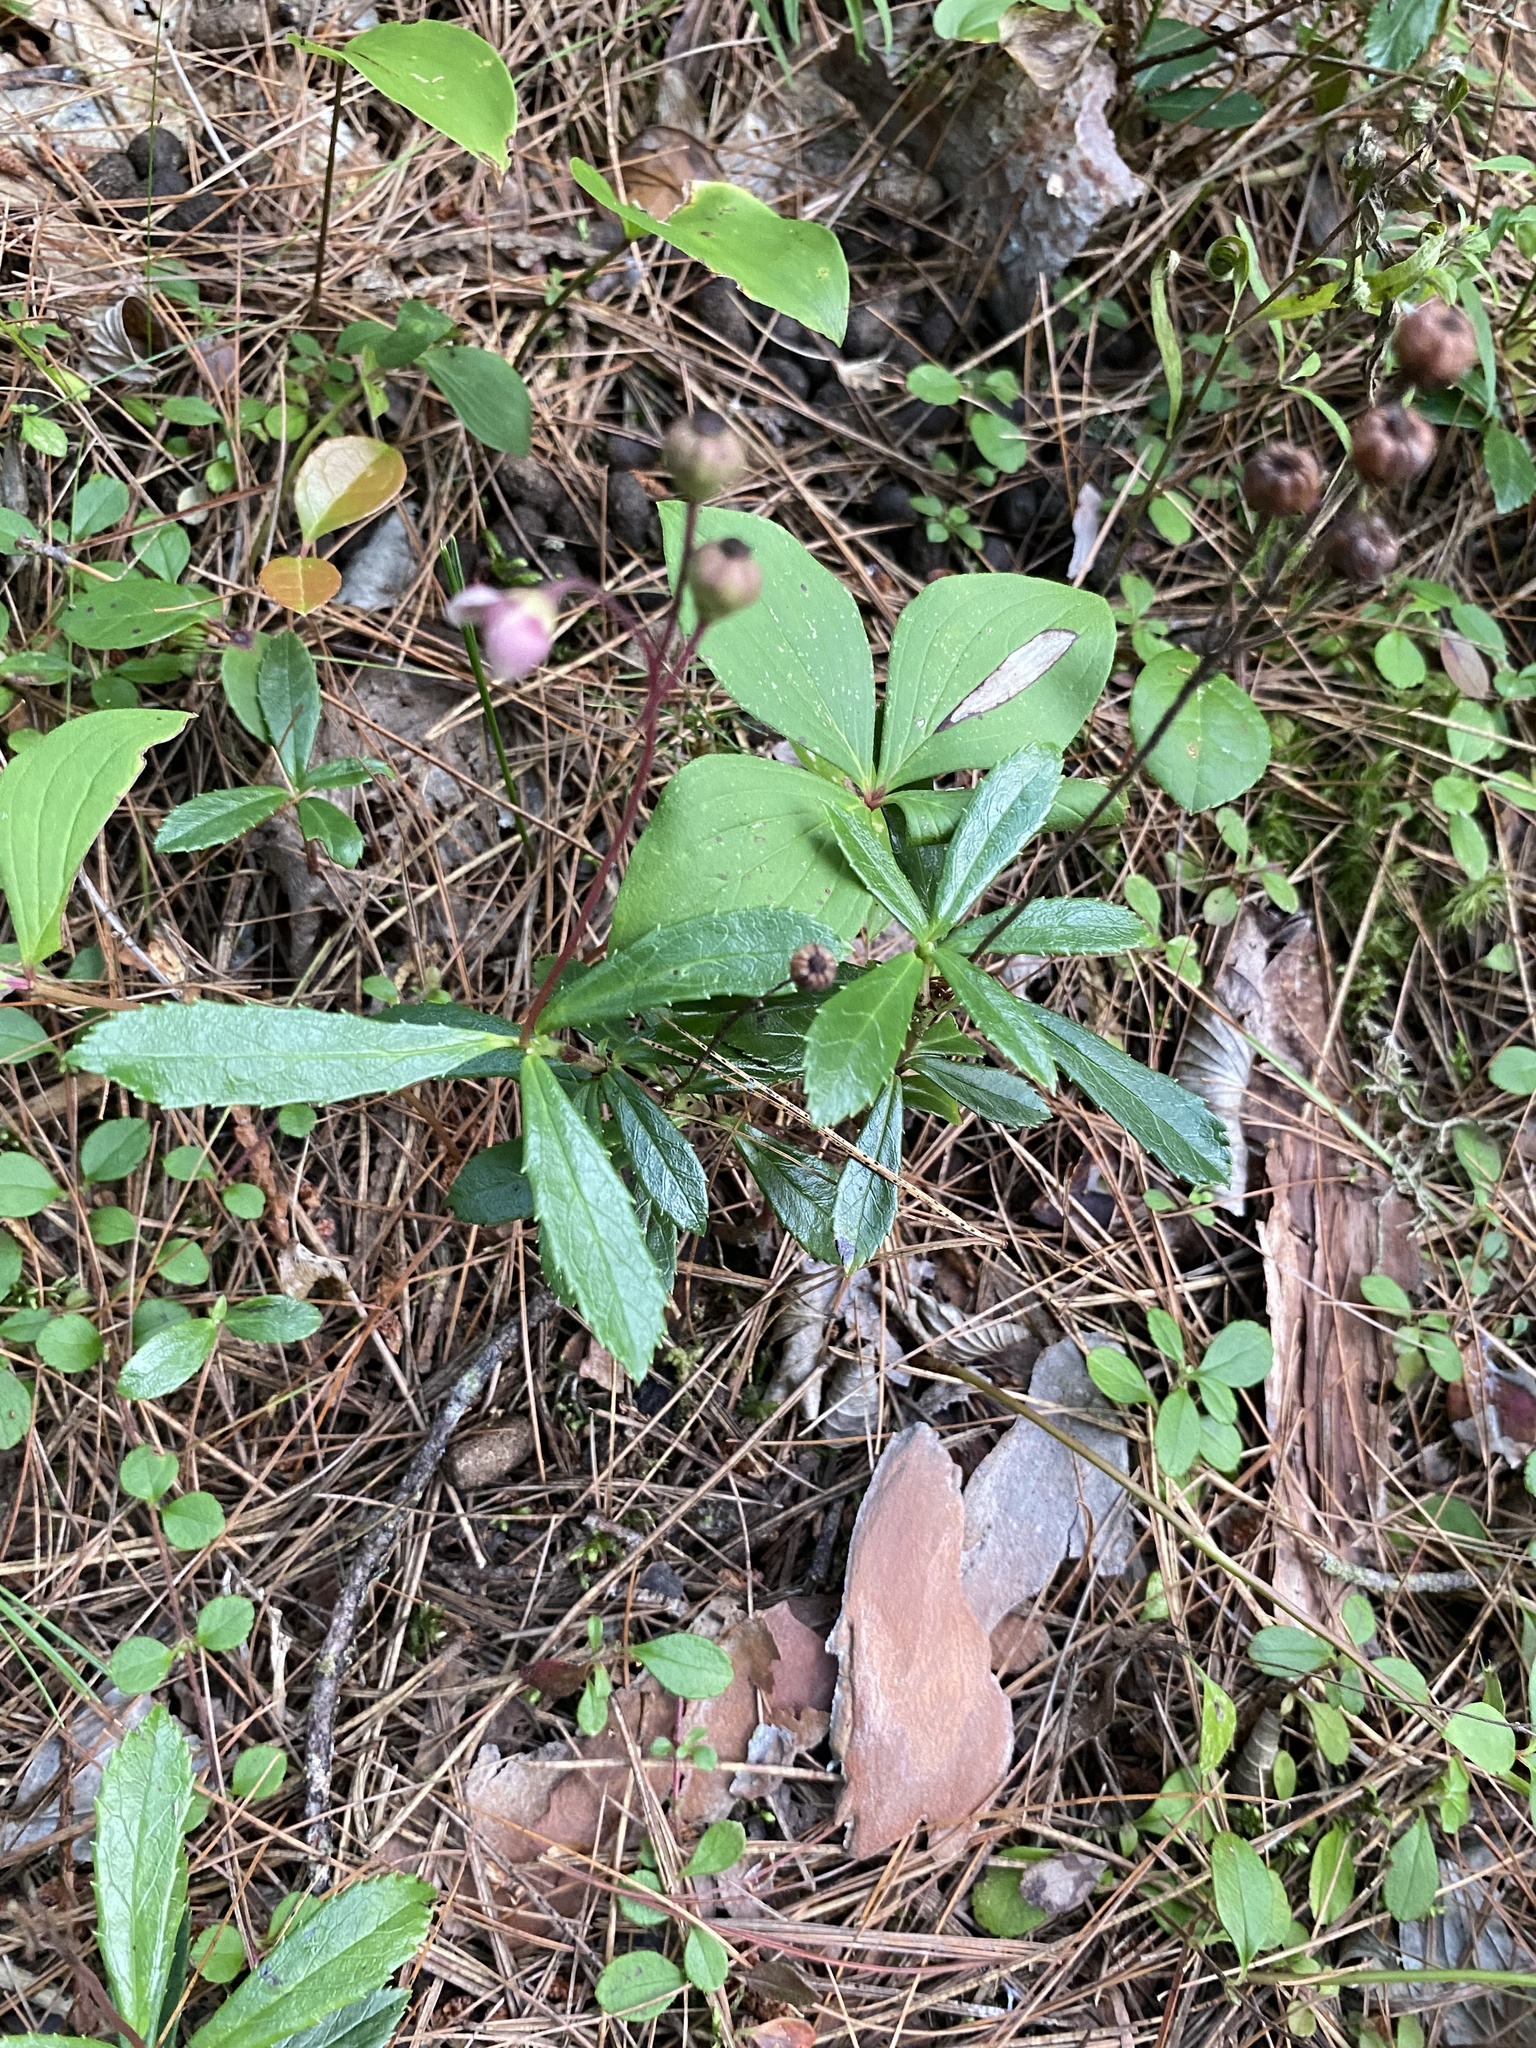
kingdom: Plantae
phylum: Tracheophyta
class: Magnoliopsida
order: Ericales
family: Ericaceae
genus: Chimaphila
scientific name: Chimaphila umbellata
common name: Pipsissewa
